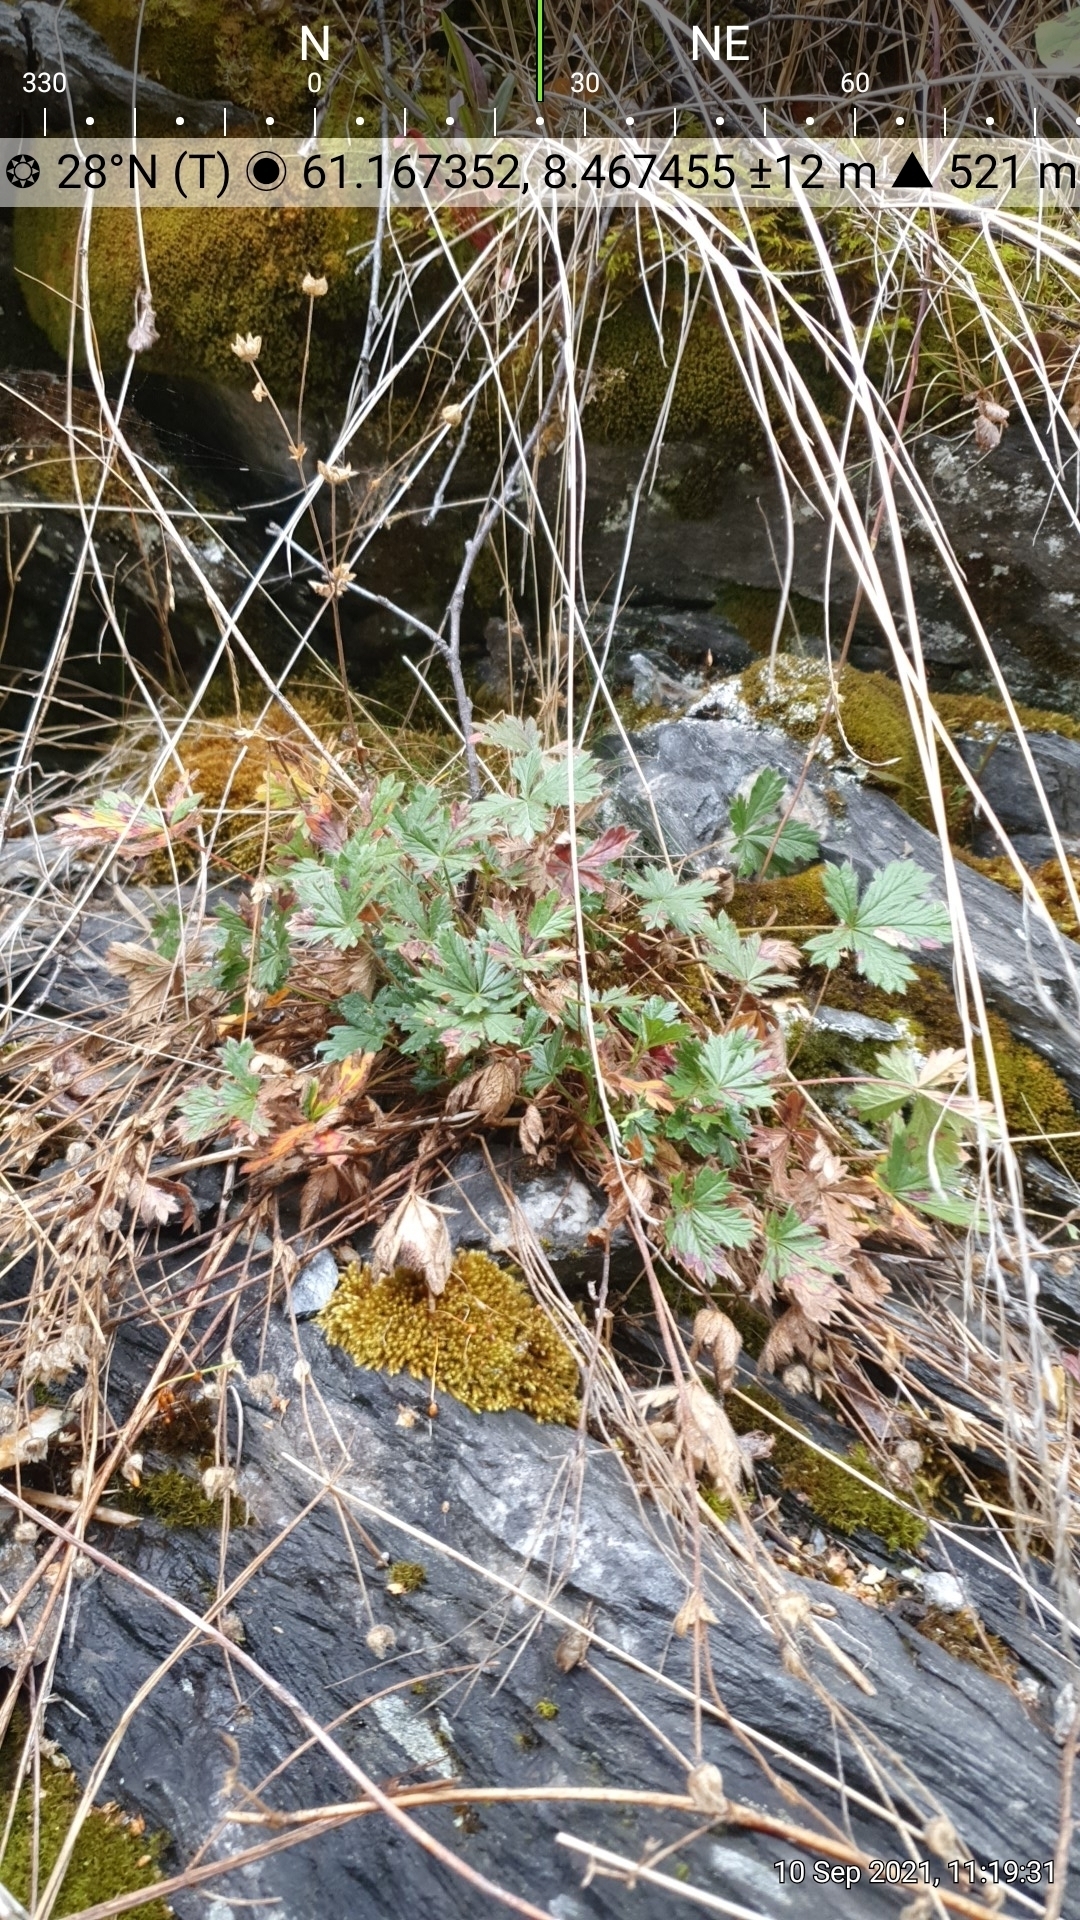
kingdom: Plantae
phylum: Tracheophyta
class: Magnoliopsida
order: Rosales
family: Rosaceae
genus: Potentilla
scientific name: Potentilla crantzii
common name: Alpine cinquefoil
